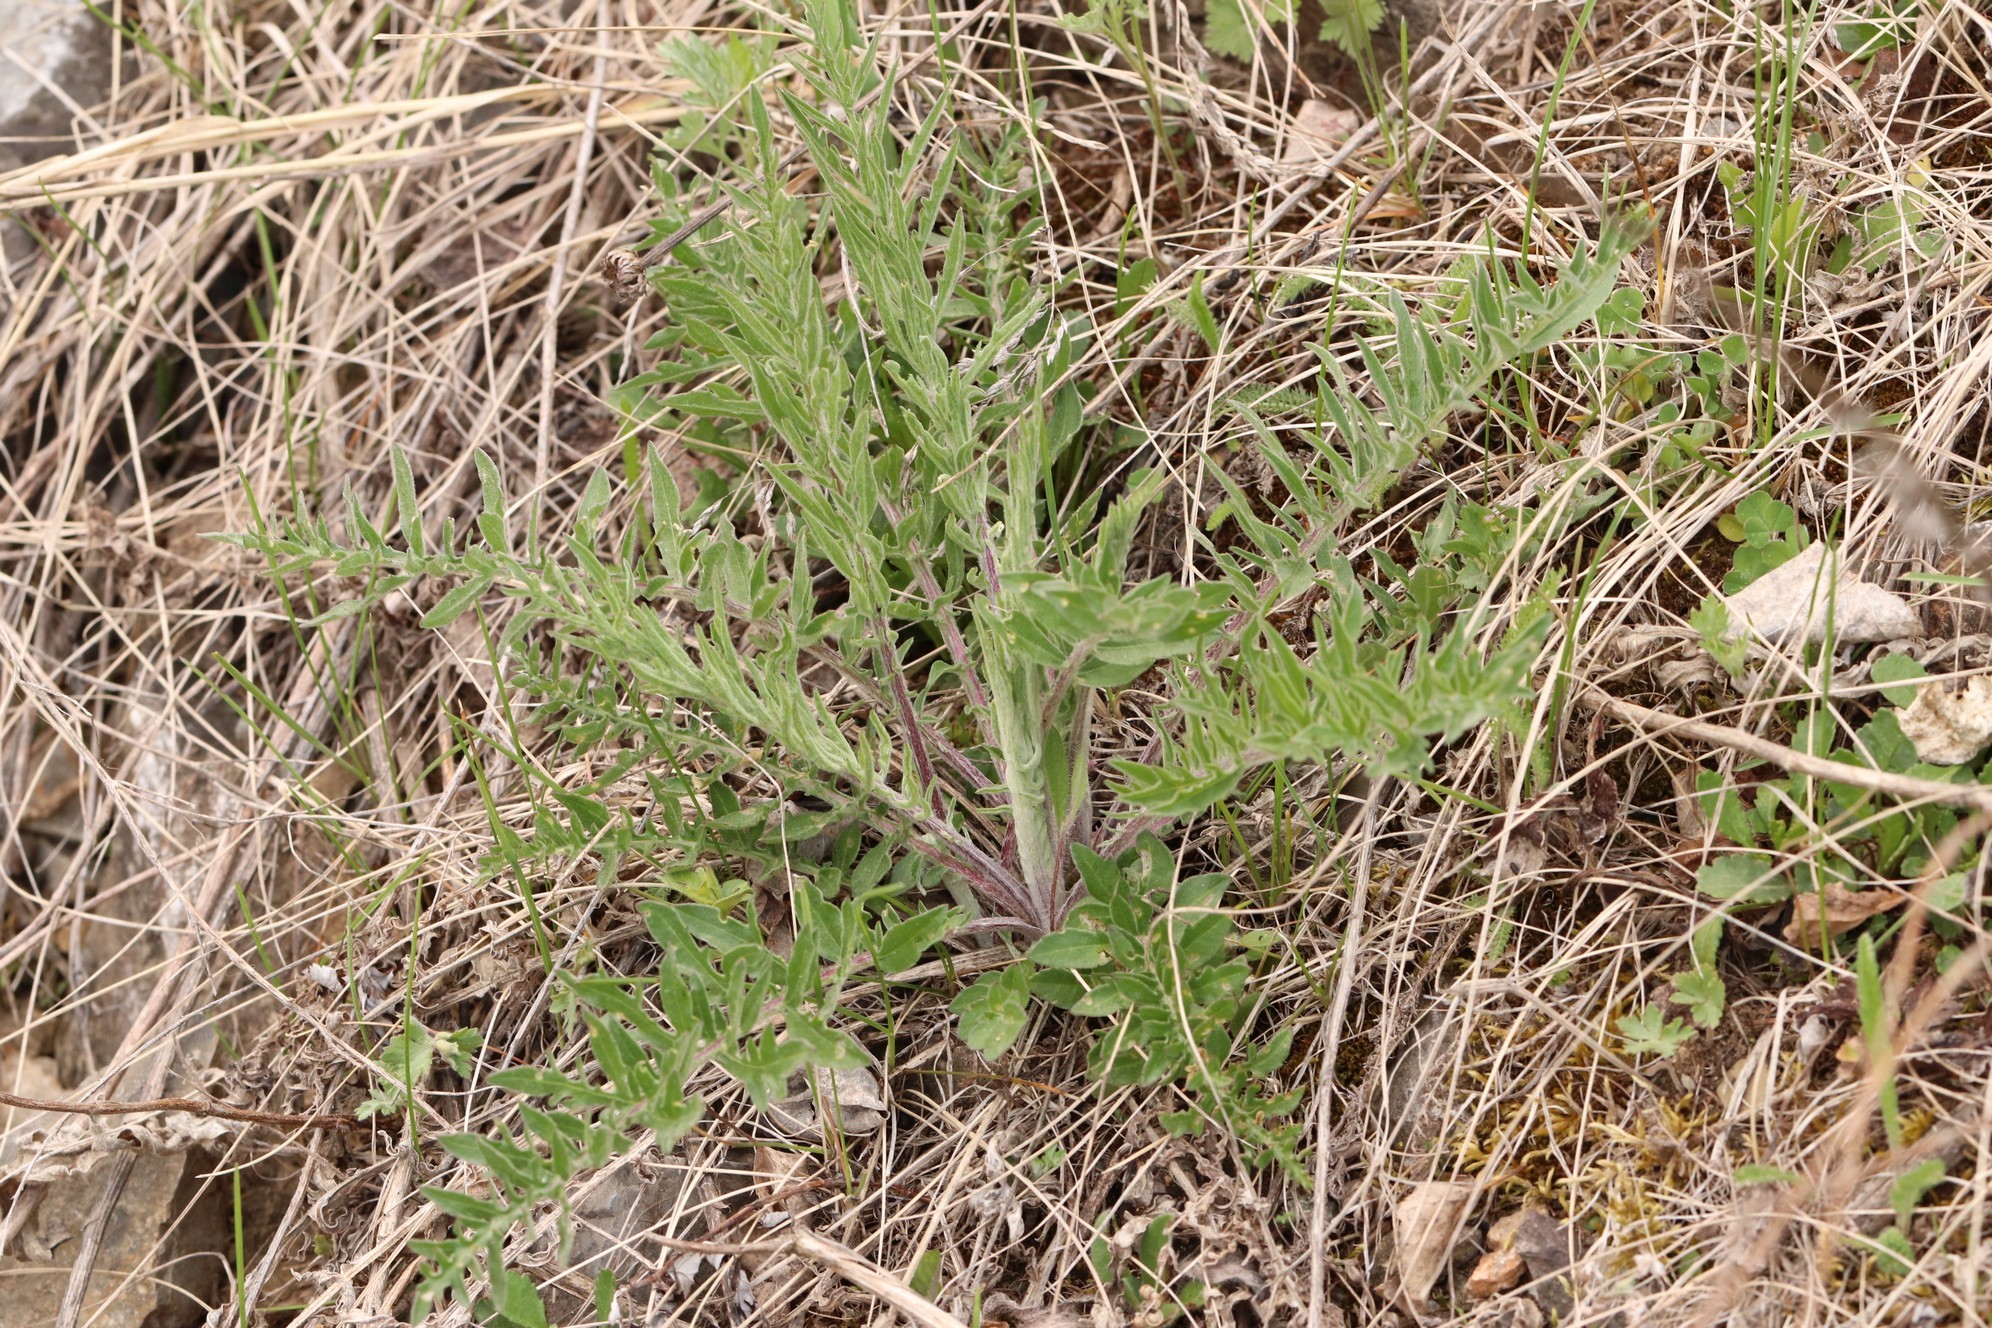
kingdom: Plantae
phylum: Tracheophyta
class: Magnoliopsida
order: Asterales
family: Asteraceae
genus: Centaurea
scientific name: Centaurea scabiosa
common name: Greater knapweed
